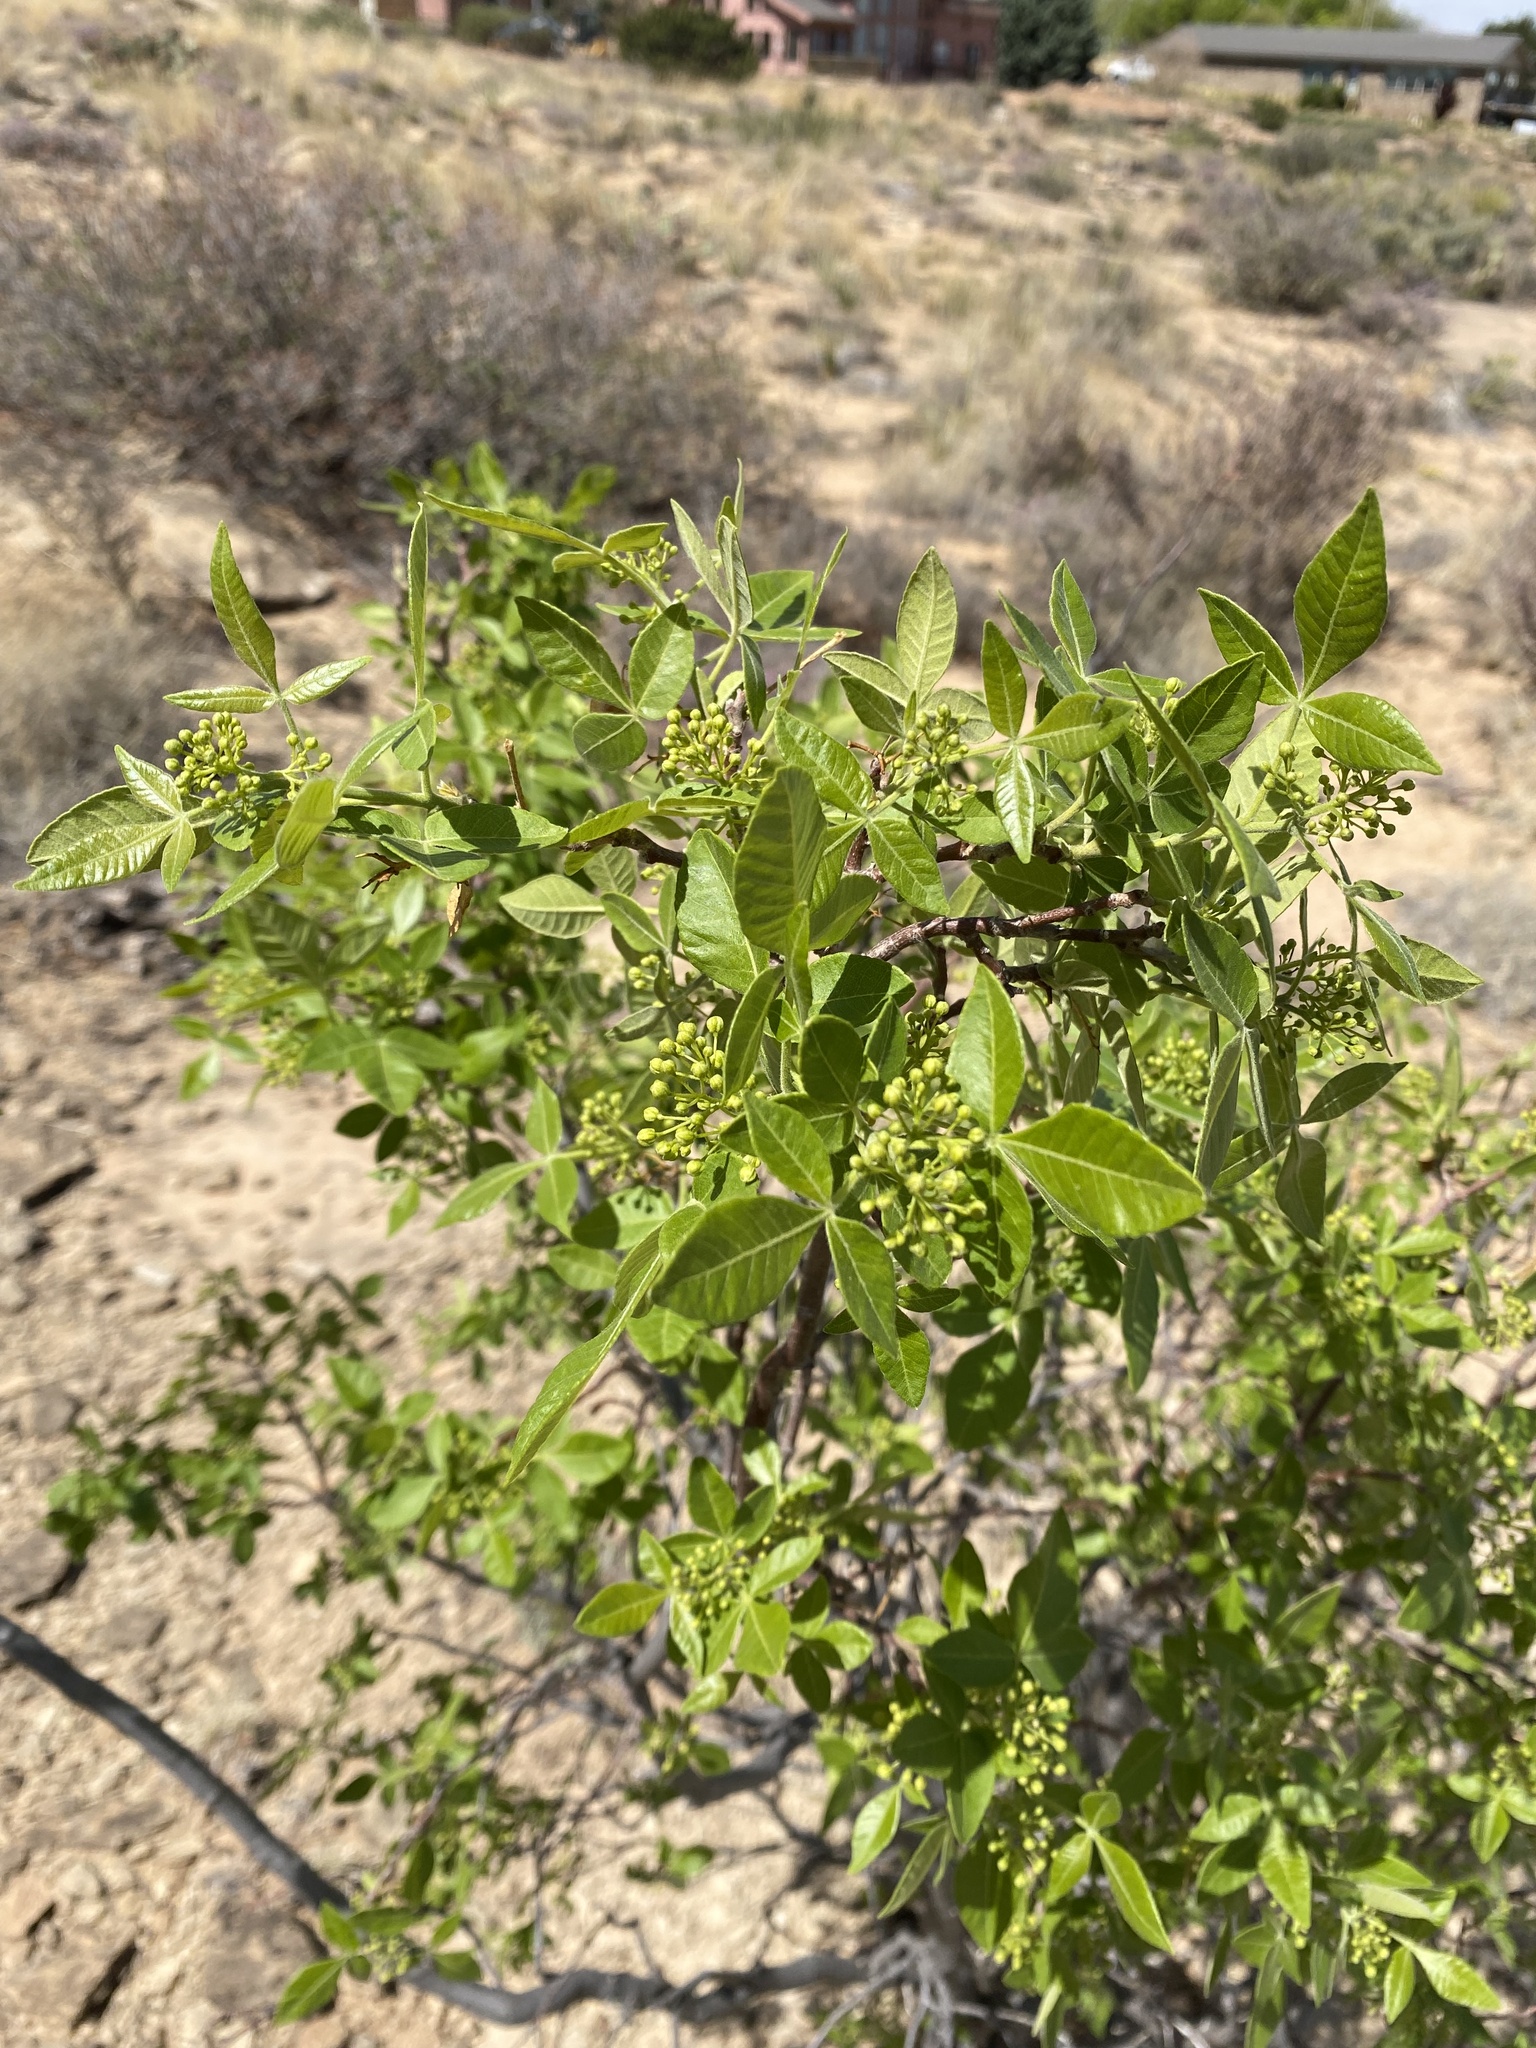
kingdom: Plantae
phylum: Tracheophyta
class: Magnoliopsida
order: Sapindales
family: Rutaceae
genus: Ptelea
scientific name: Ptelea trifoliata
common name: Common hop-tree
